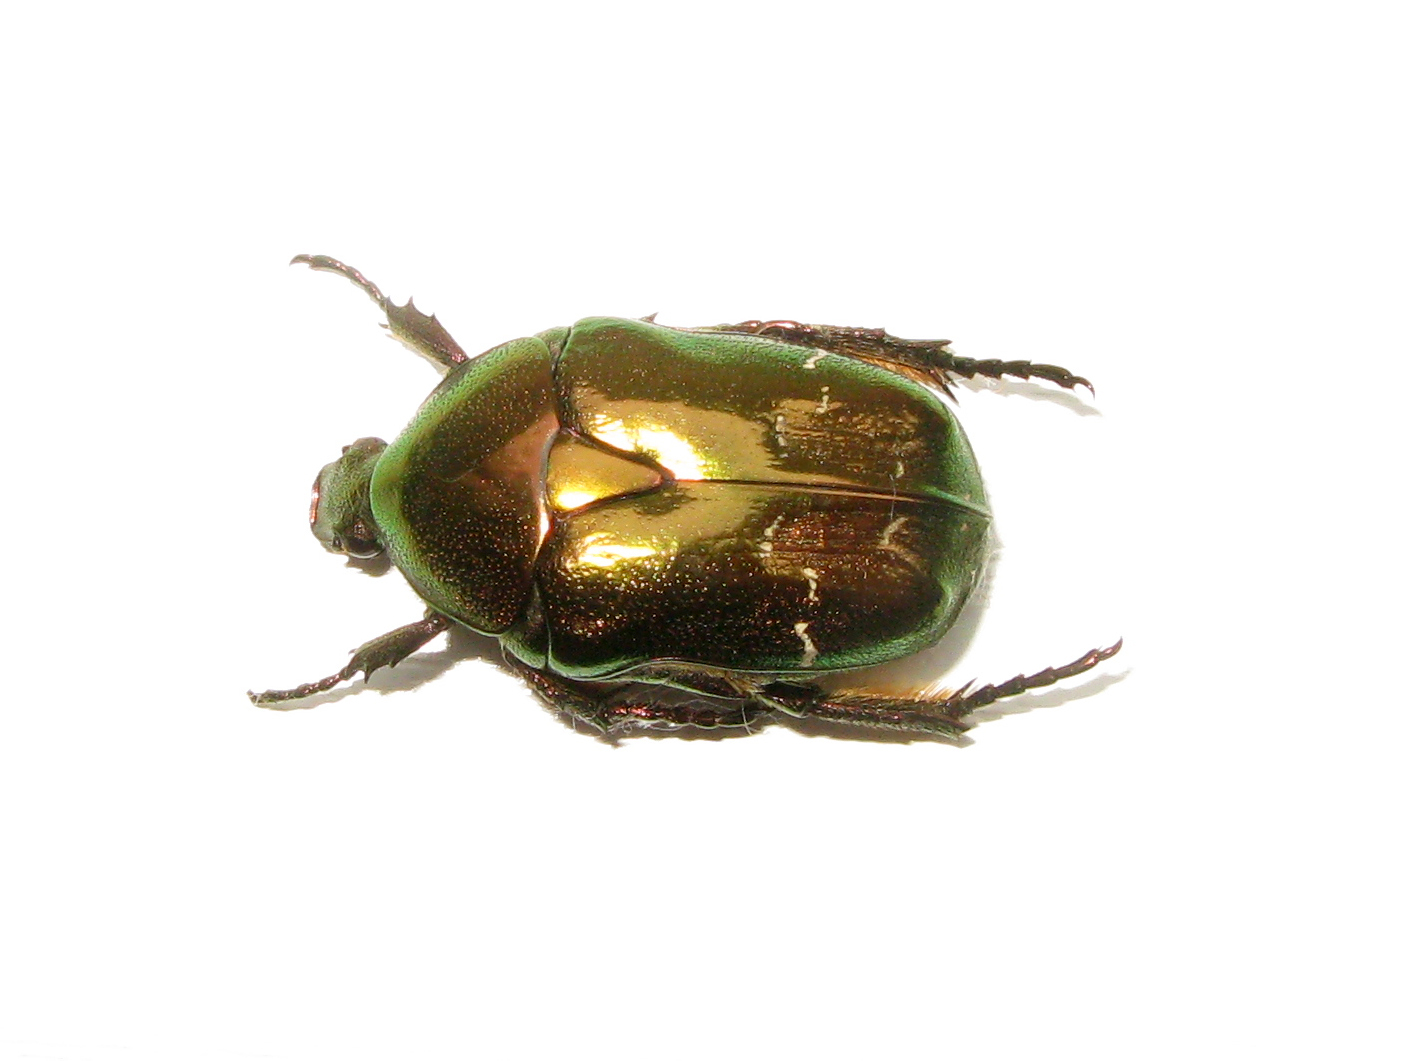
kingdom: Animalia
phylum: Arthropoda
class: Insecta
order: Coleoptera
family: Scarabaeidae
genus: Protaetia
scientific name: Protaetia fieberi
